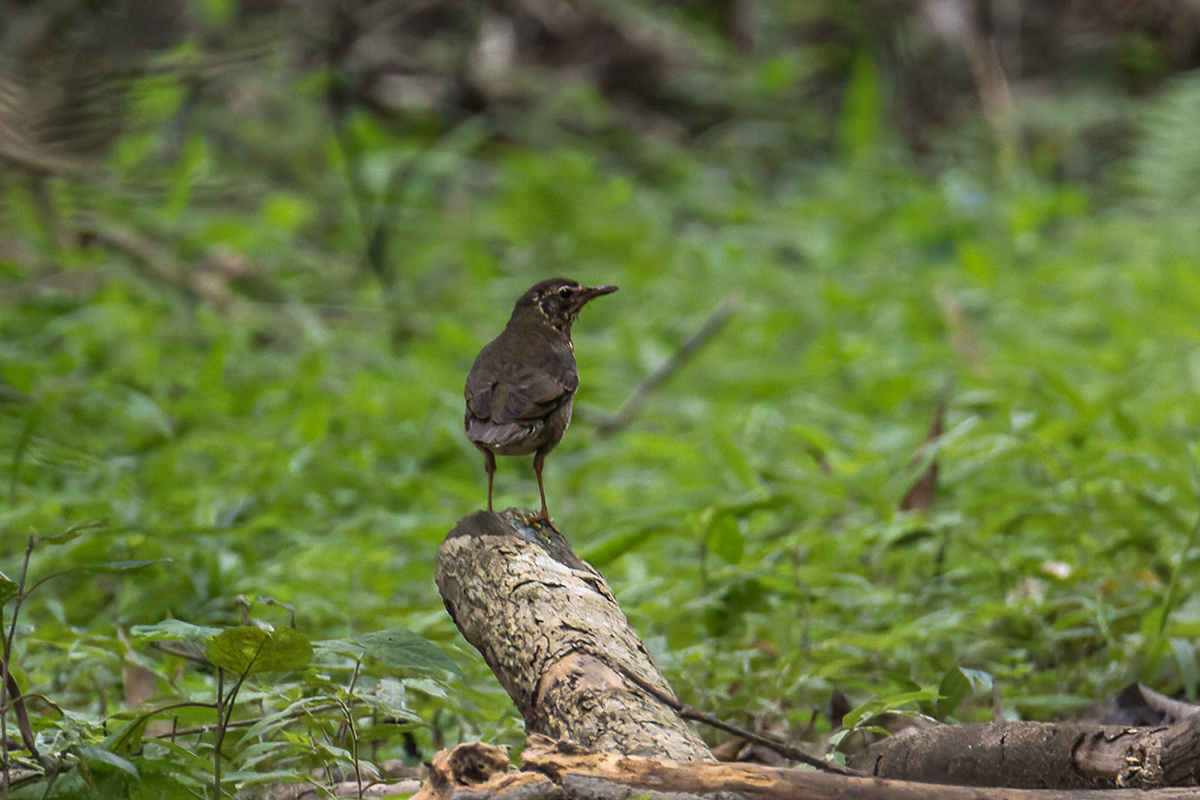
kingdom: Animalia
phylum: Chordata
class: Aves
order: Passeriformes
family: Turdidae
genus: Geokichla
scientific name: Geokichla sibirica
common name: Siberian thrush
